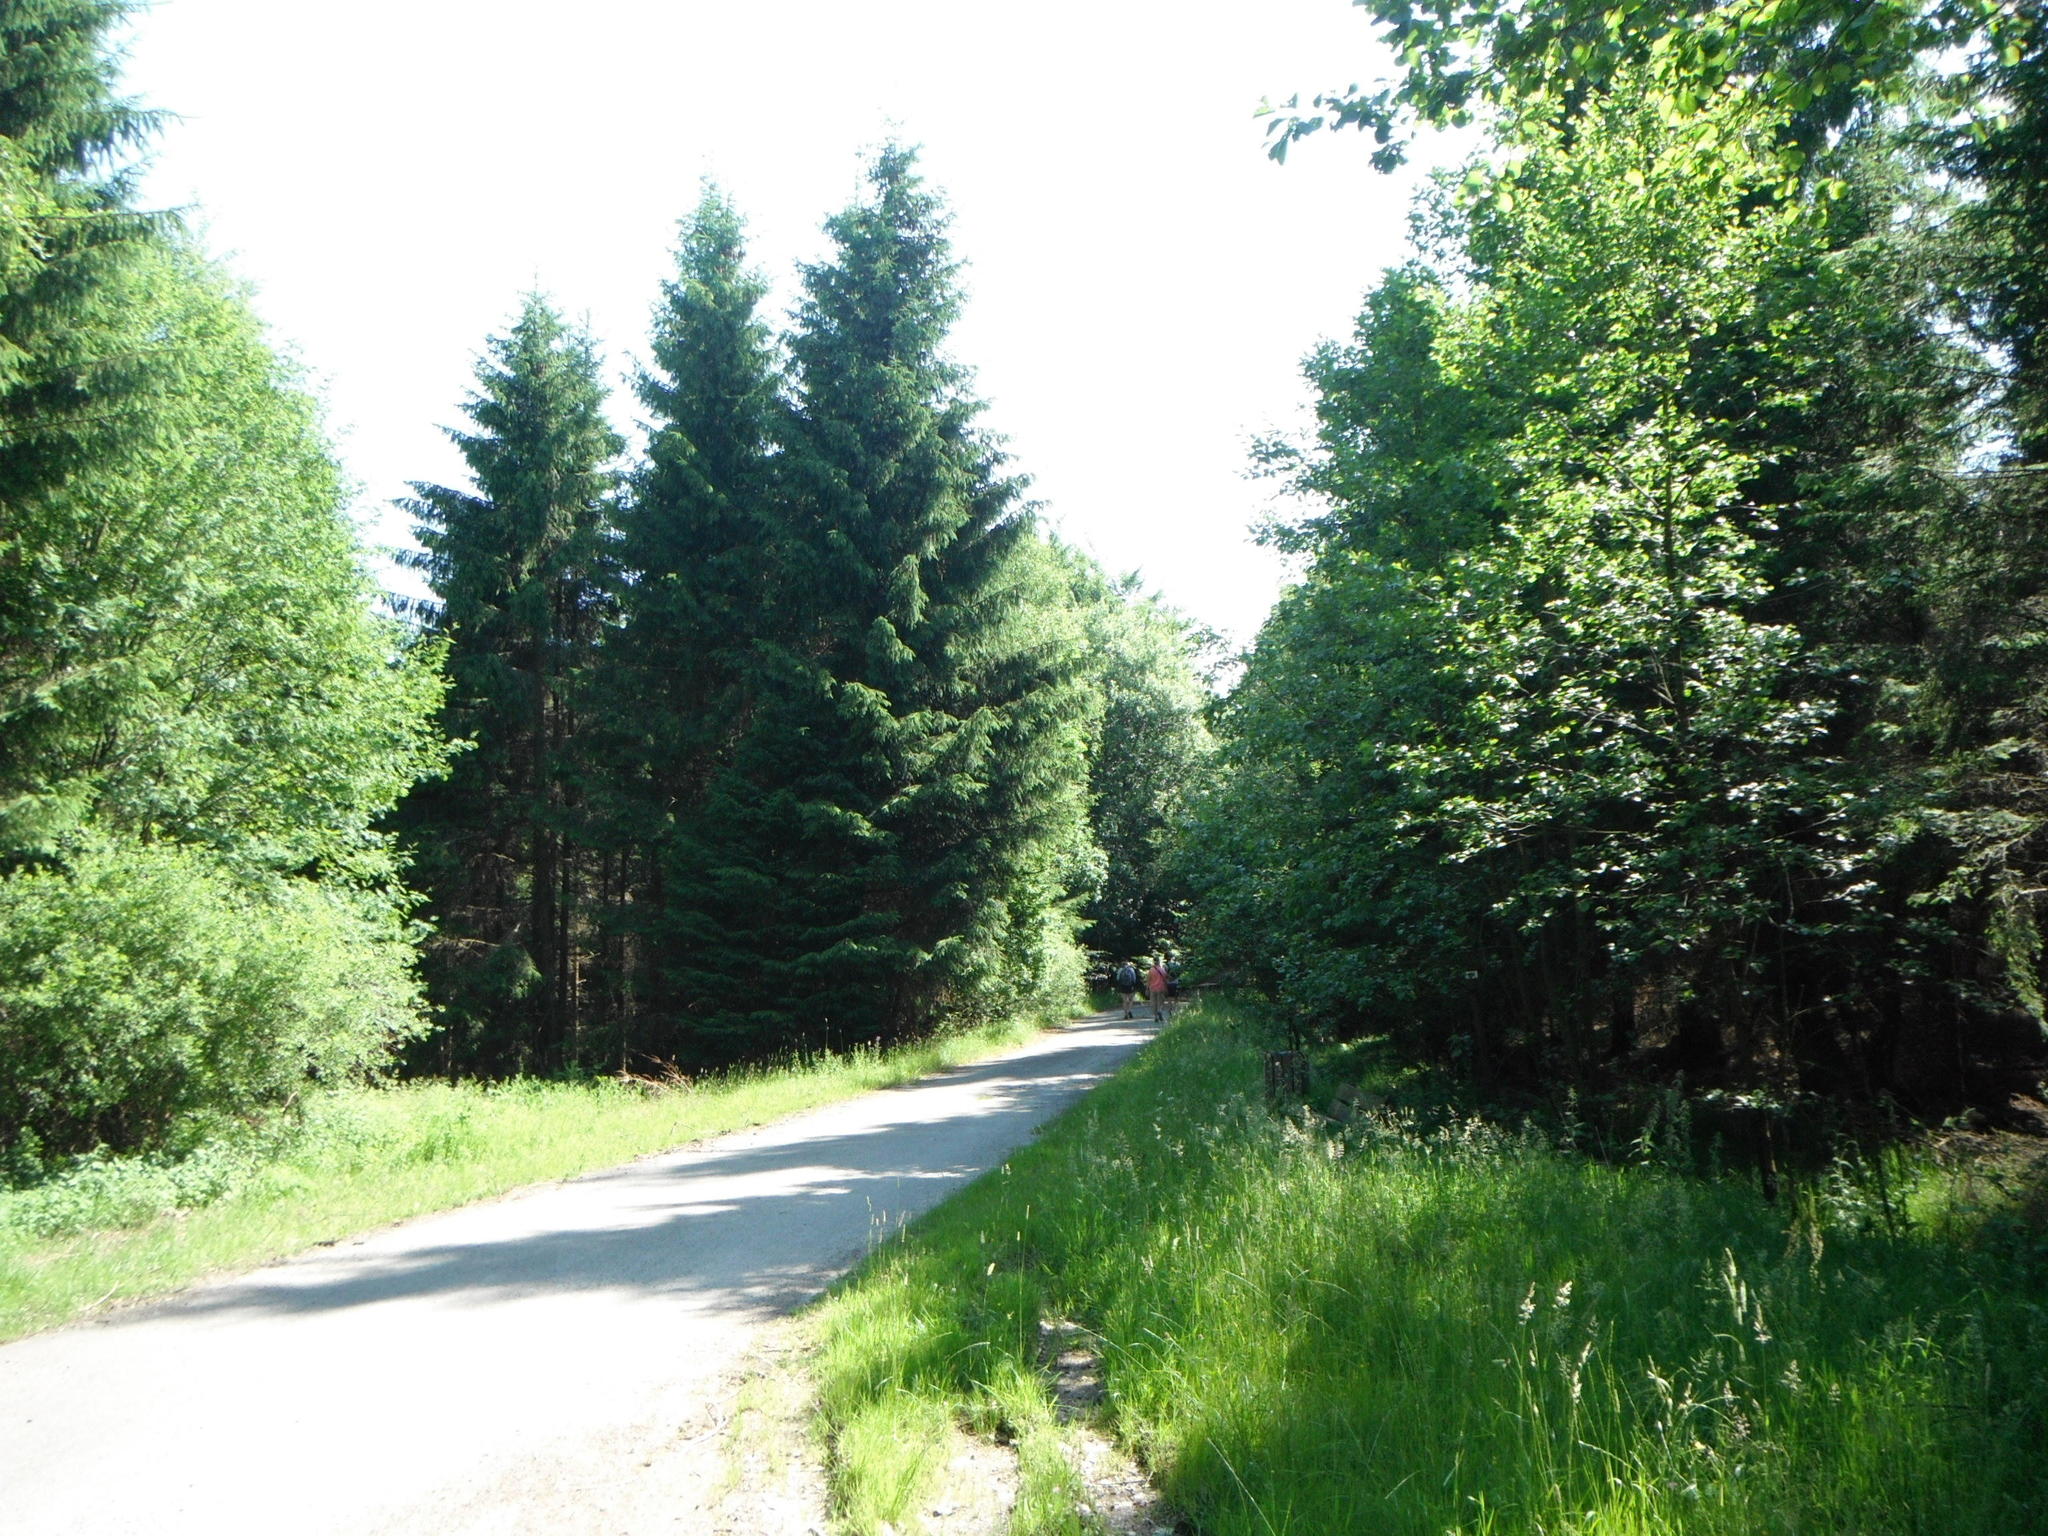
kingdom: Plantae
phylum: Tracheophyta
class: Pinopsida
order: Pinales
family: Pinaceae
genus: Picea
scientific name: Picea abies
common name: Norway spruce
